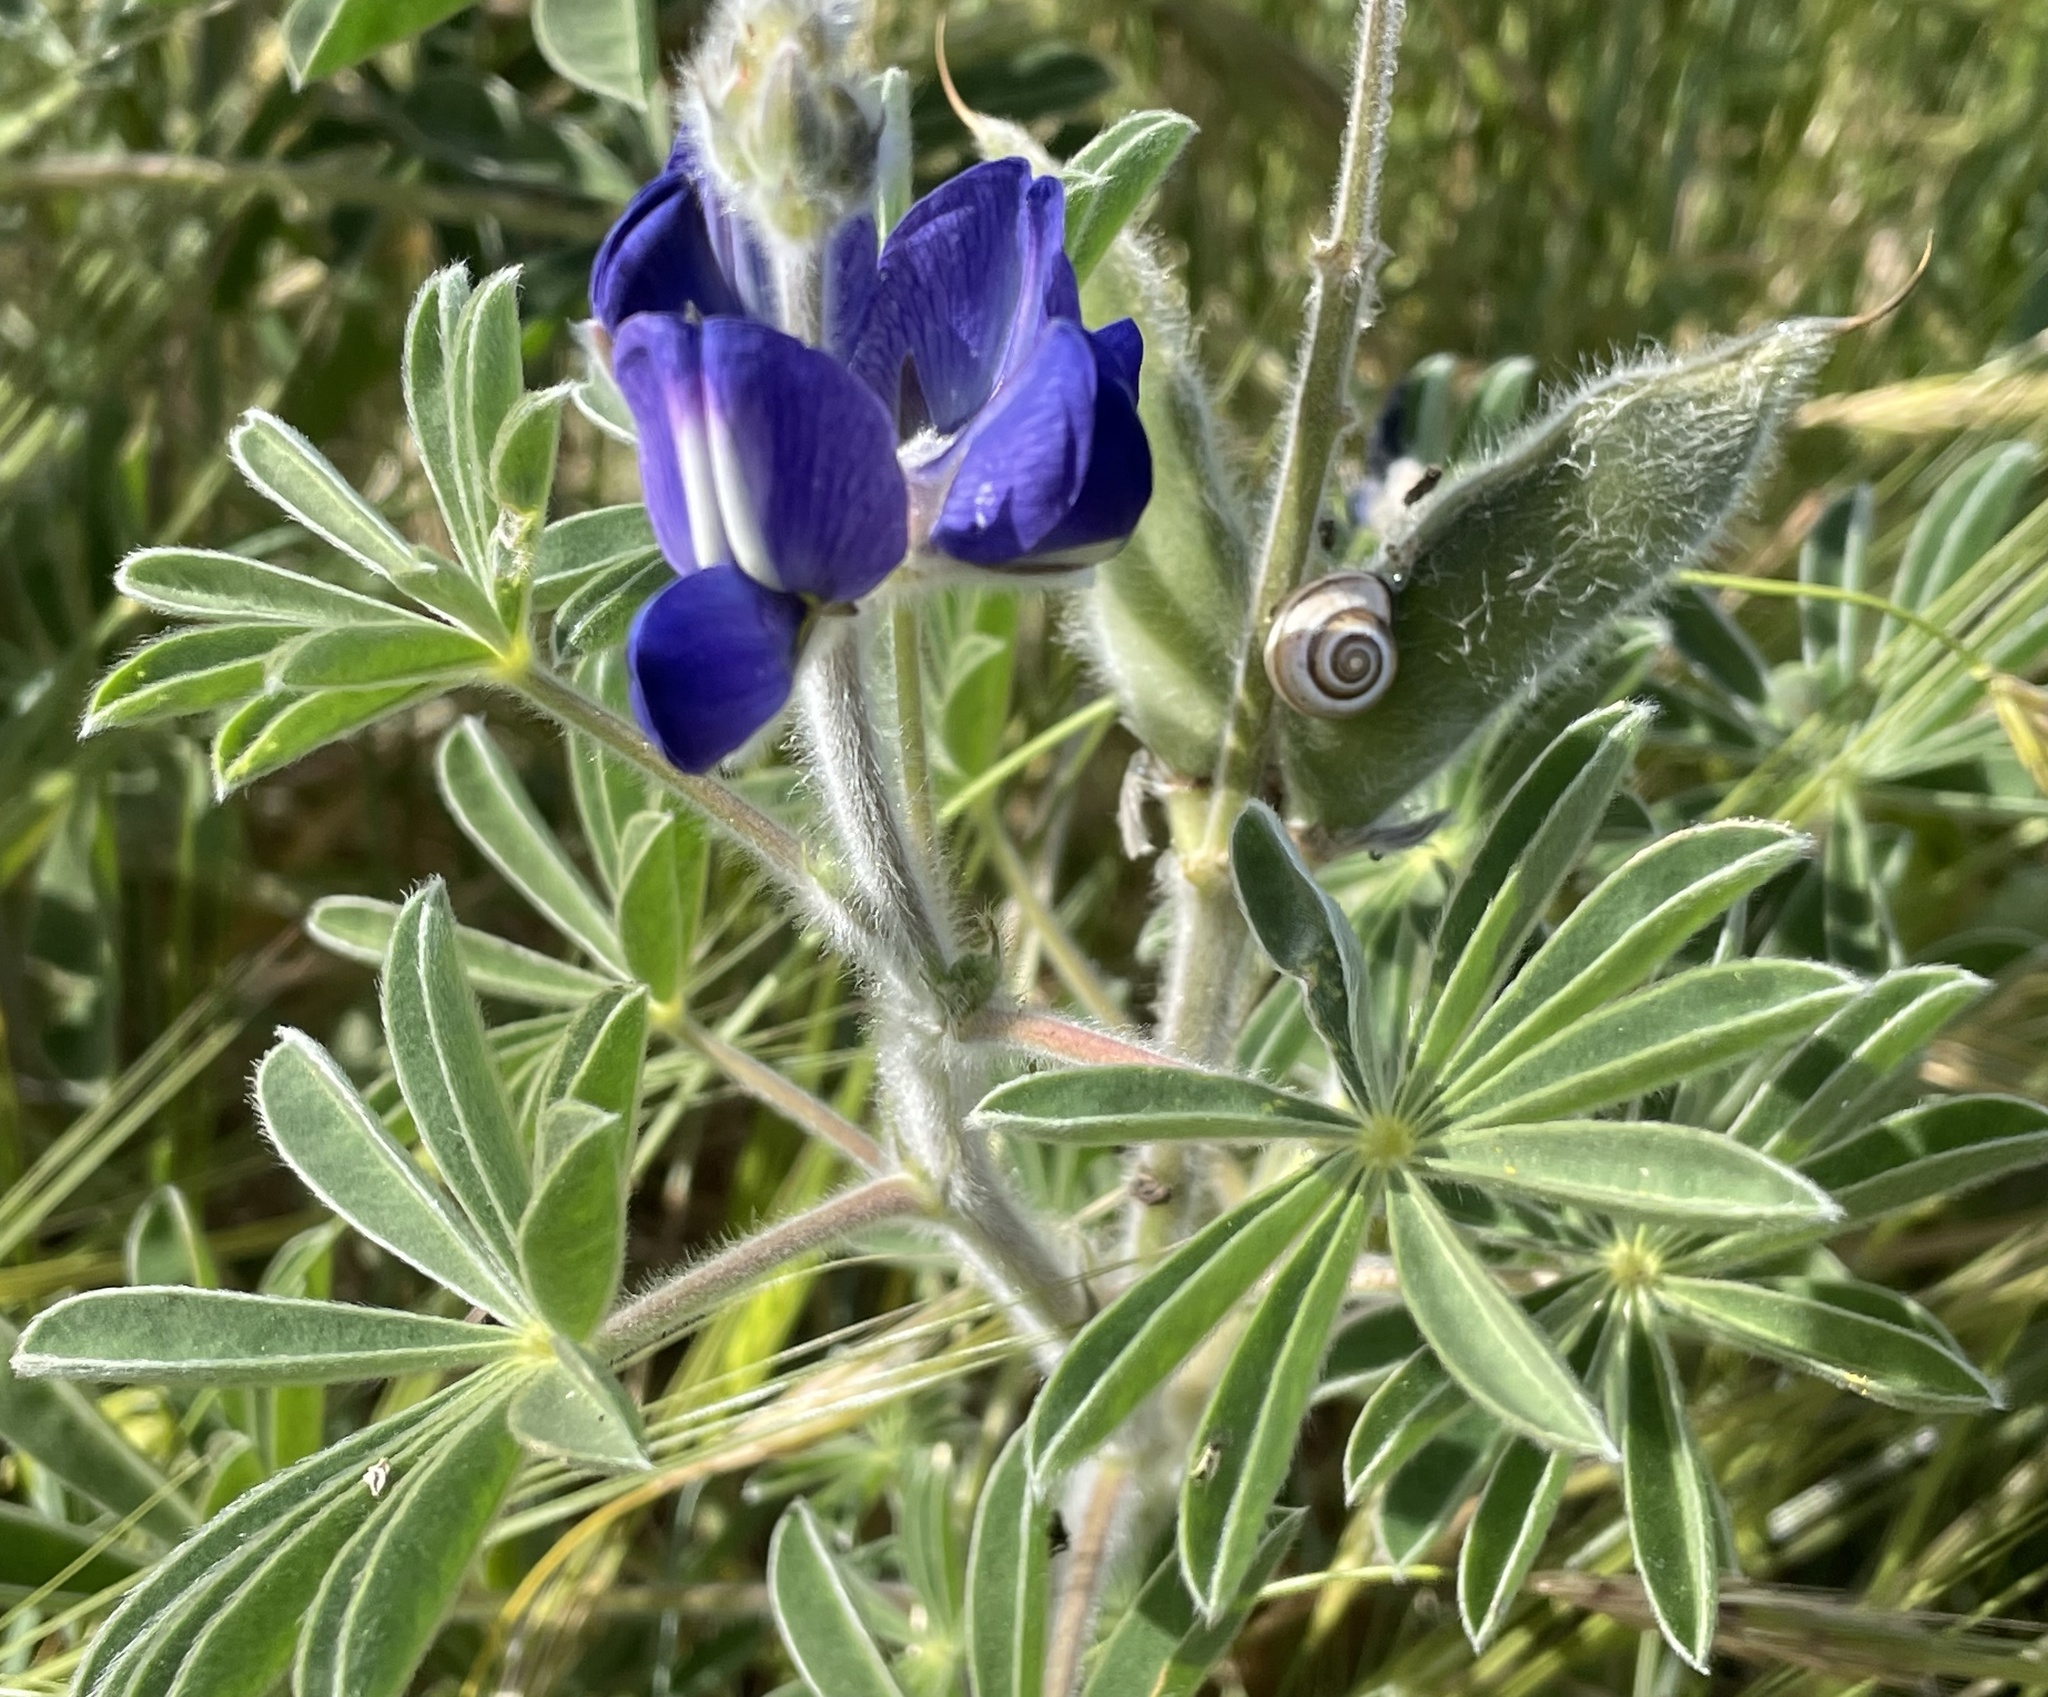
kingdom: Plantae
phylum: Tracheophyta
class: Magnoliopsida
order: Fabales
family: Fabaceae
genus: Lupinus
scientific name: Lupinus pilosus
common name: Blue lupine
